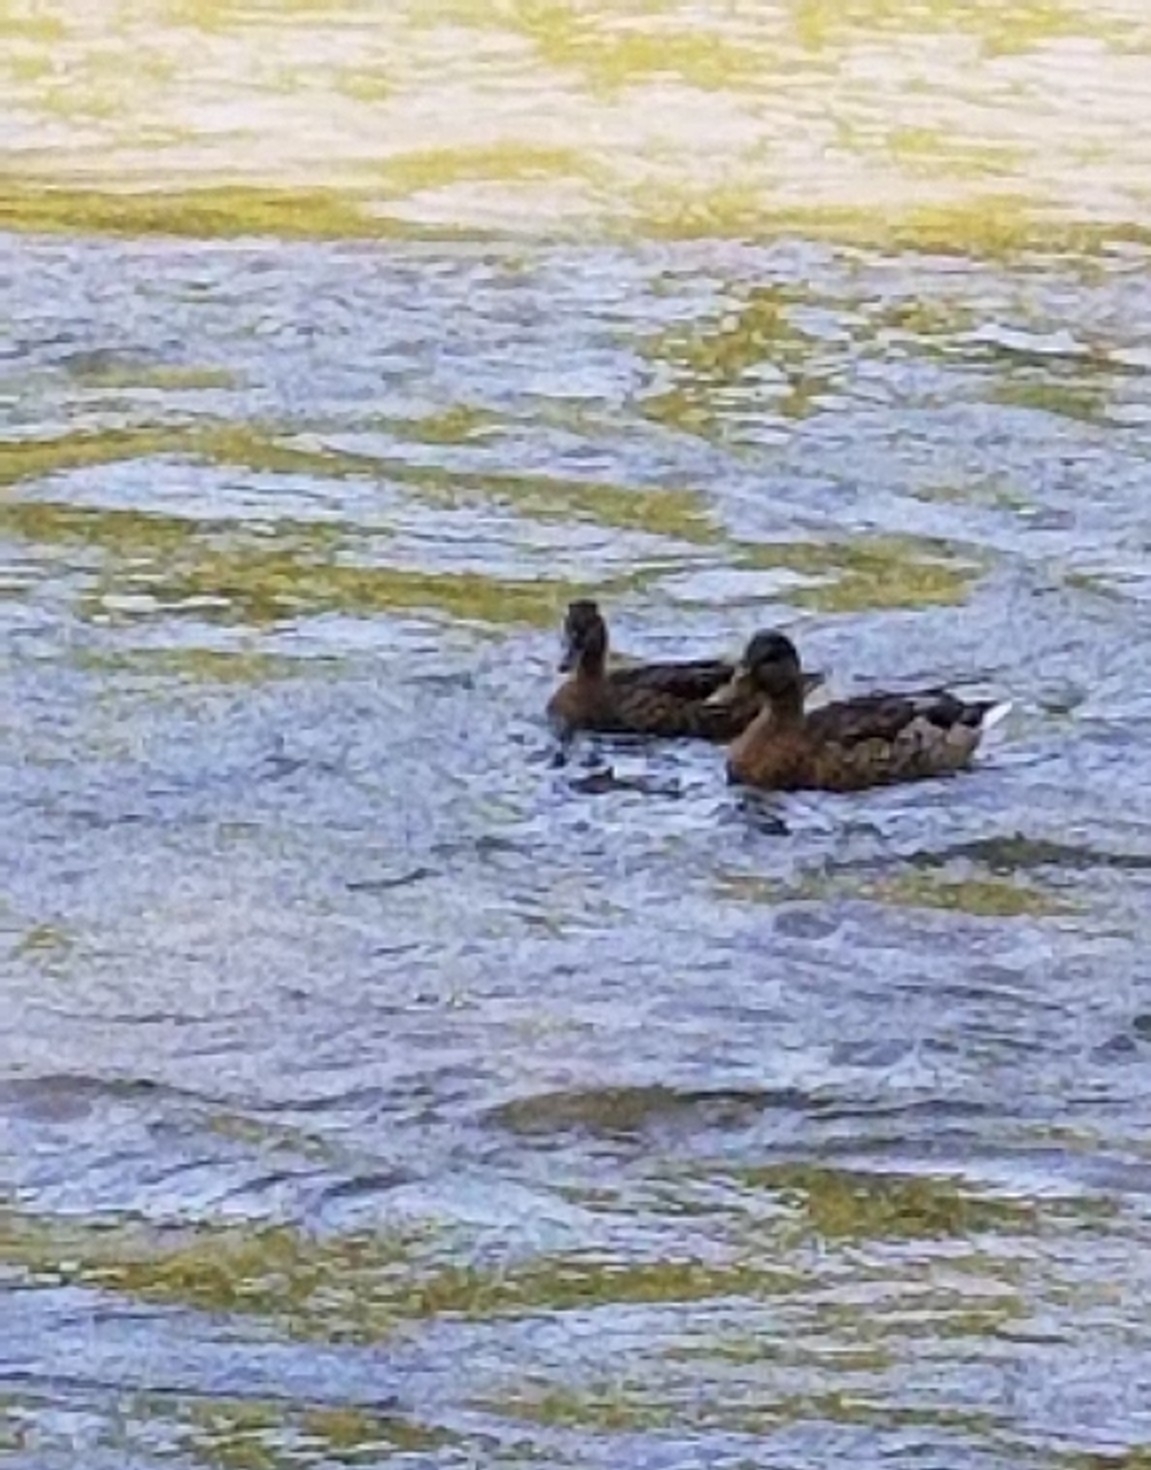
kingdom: Animalia
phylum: Chordata
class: Aves
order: Anseriformes
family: Anatidae
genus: Anas
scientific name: Anas platyrhynchos
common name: Mallard
